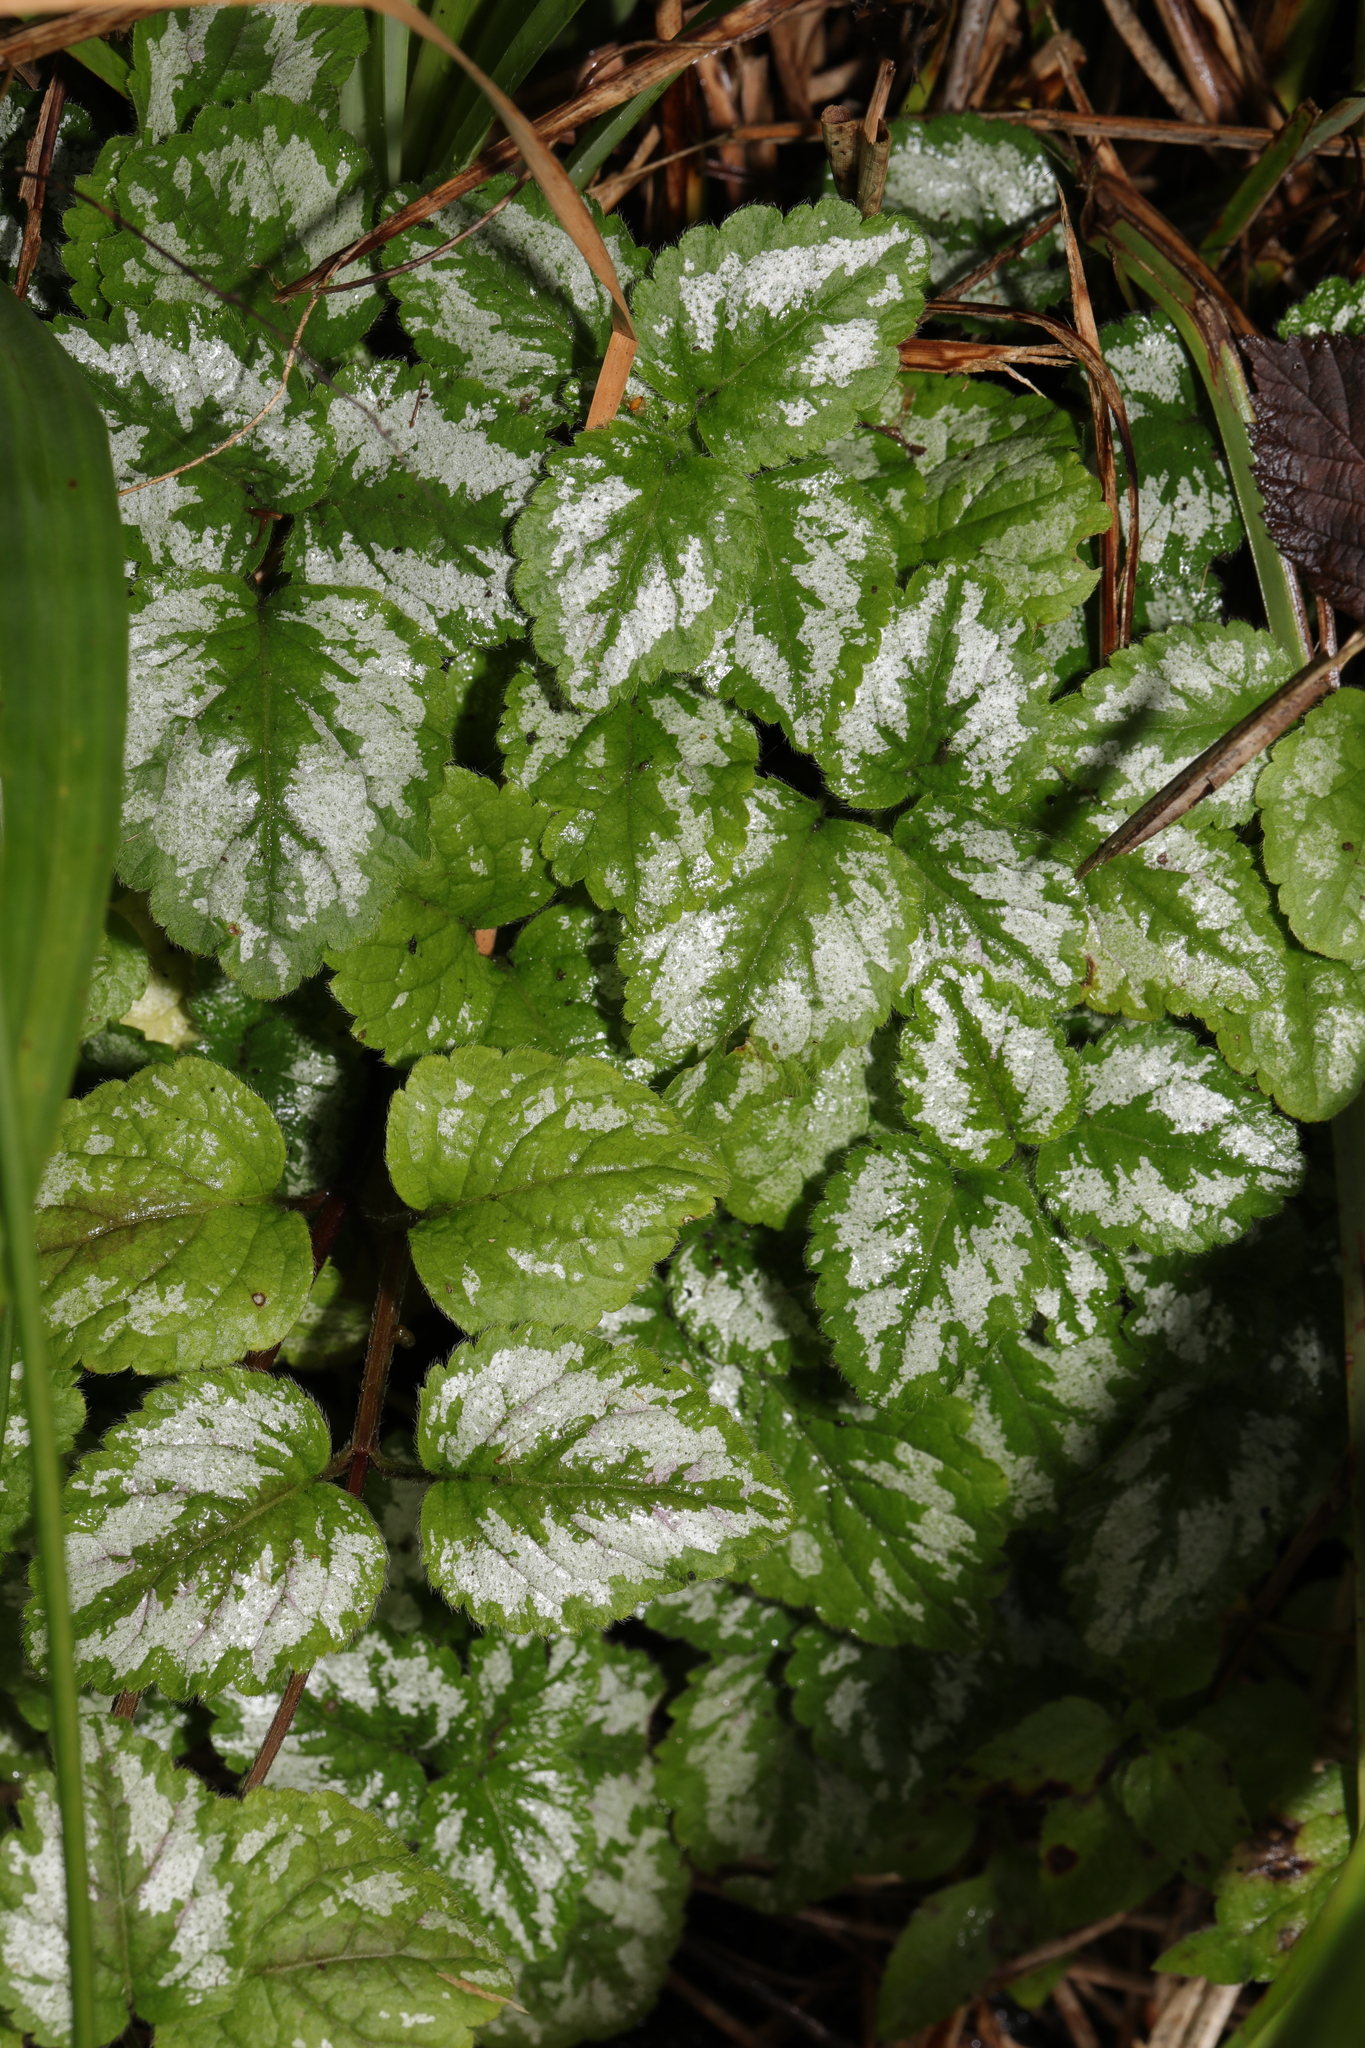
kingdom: Plantae
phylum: Tracheophyta
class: Magnoliopsida
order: Lamiales
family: Lamiaceae
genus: Lamium
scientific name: Lamium galeobdolon
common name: Yellow archangel
